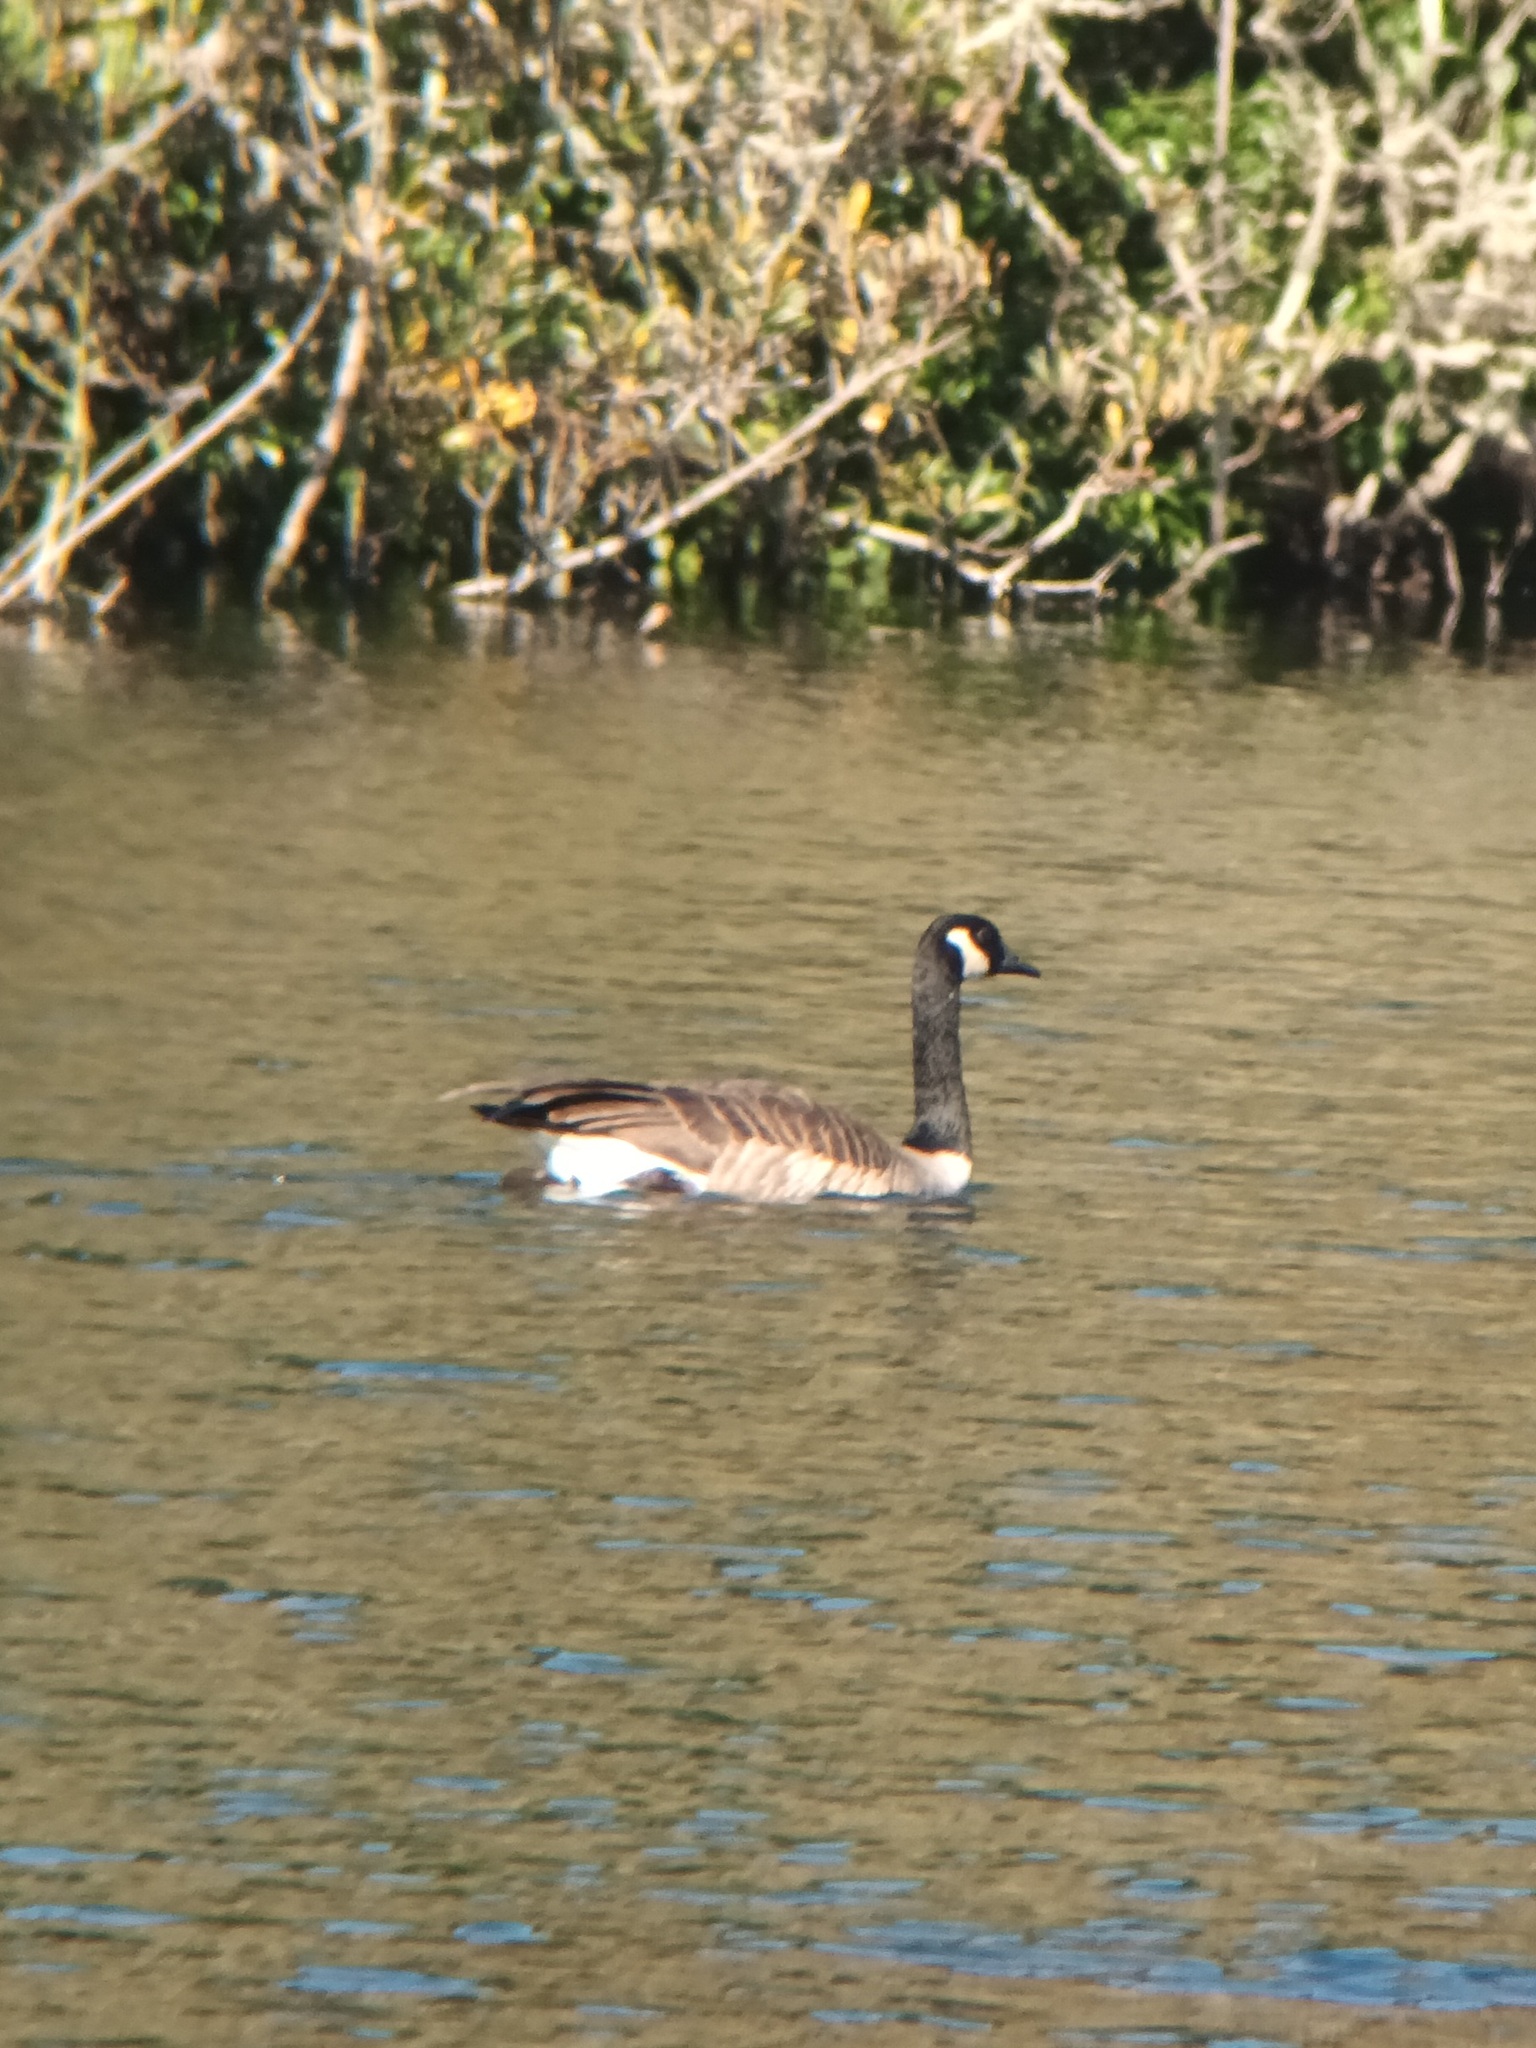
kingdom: Animalia
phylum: Chordata
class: Aves
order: Anseriformes
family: Anatidae
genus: Branta
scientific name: Branta canadensis
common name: Canada goose
